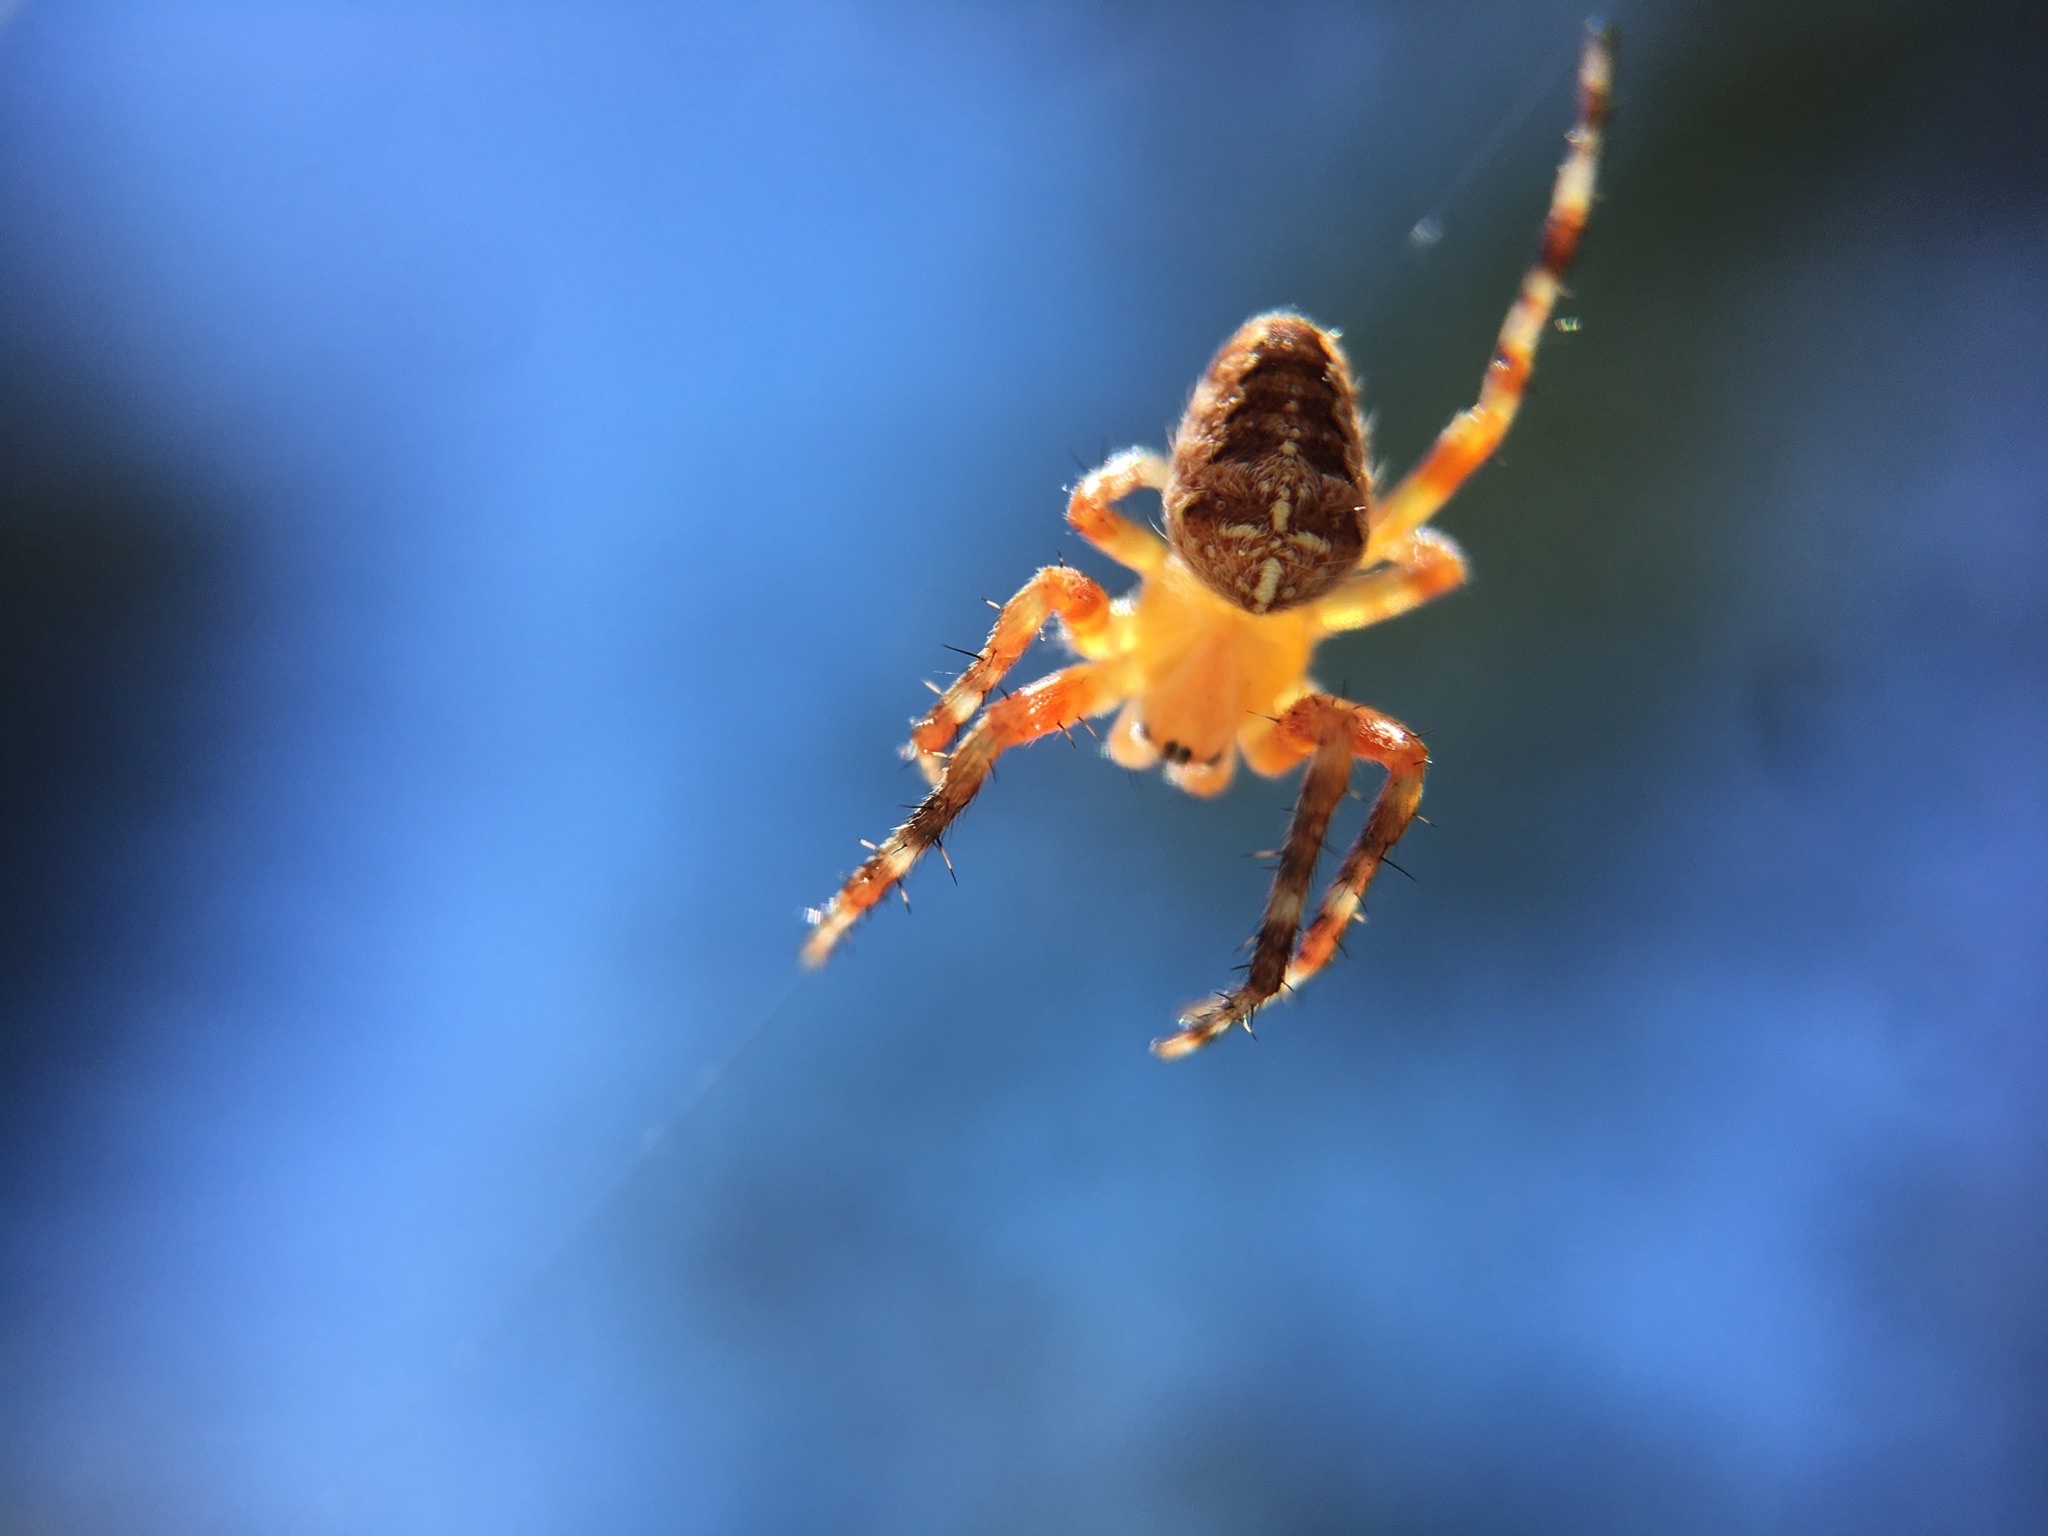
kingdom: Animalia
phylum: Arthropoda
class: Arachnida
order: Araneae
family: Araneidae
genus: Araneus
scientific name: Araneus diadematus
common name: Cross orbweaver
